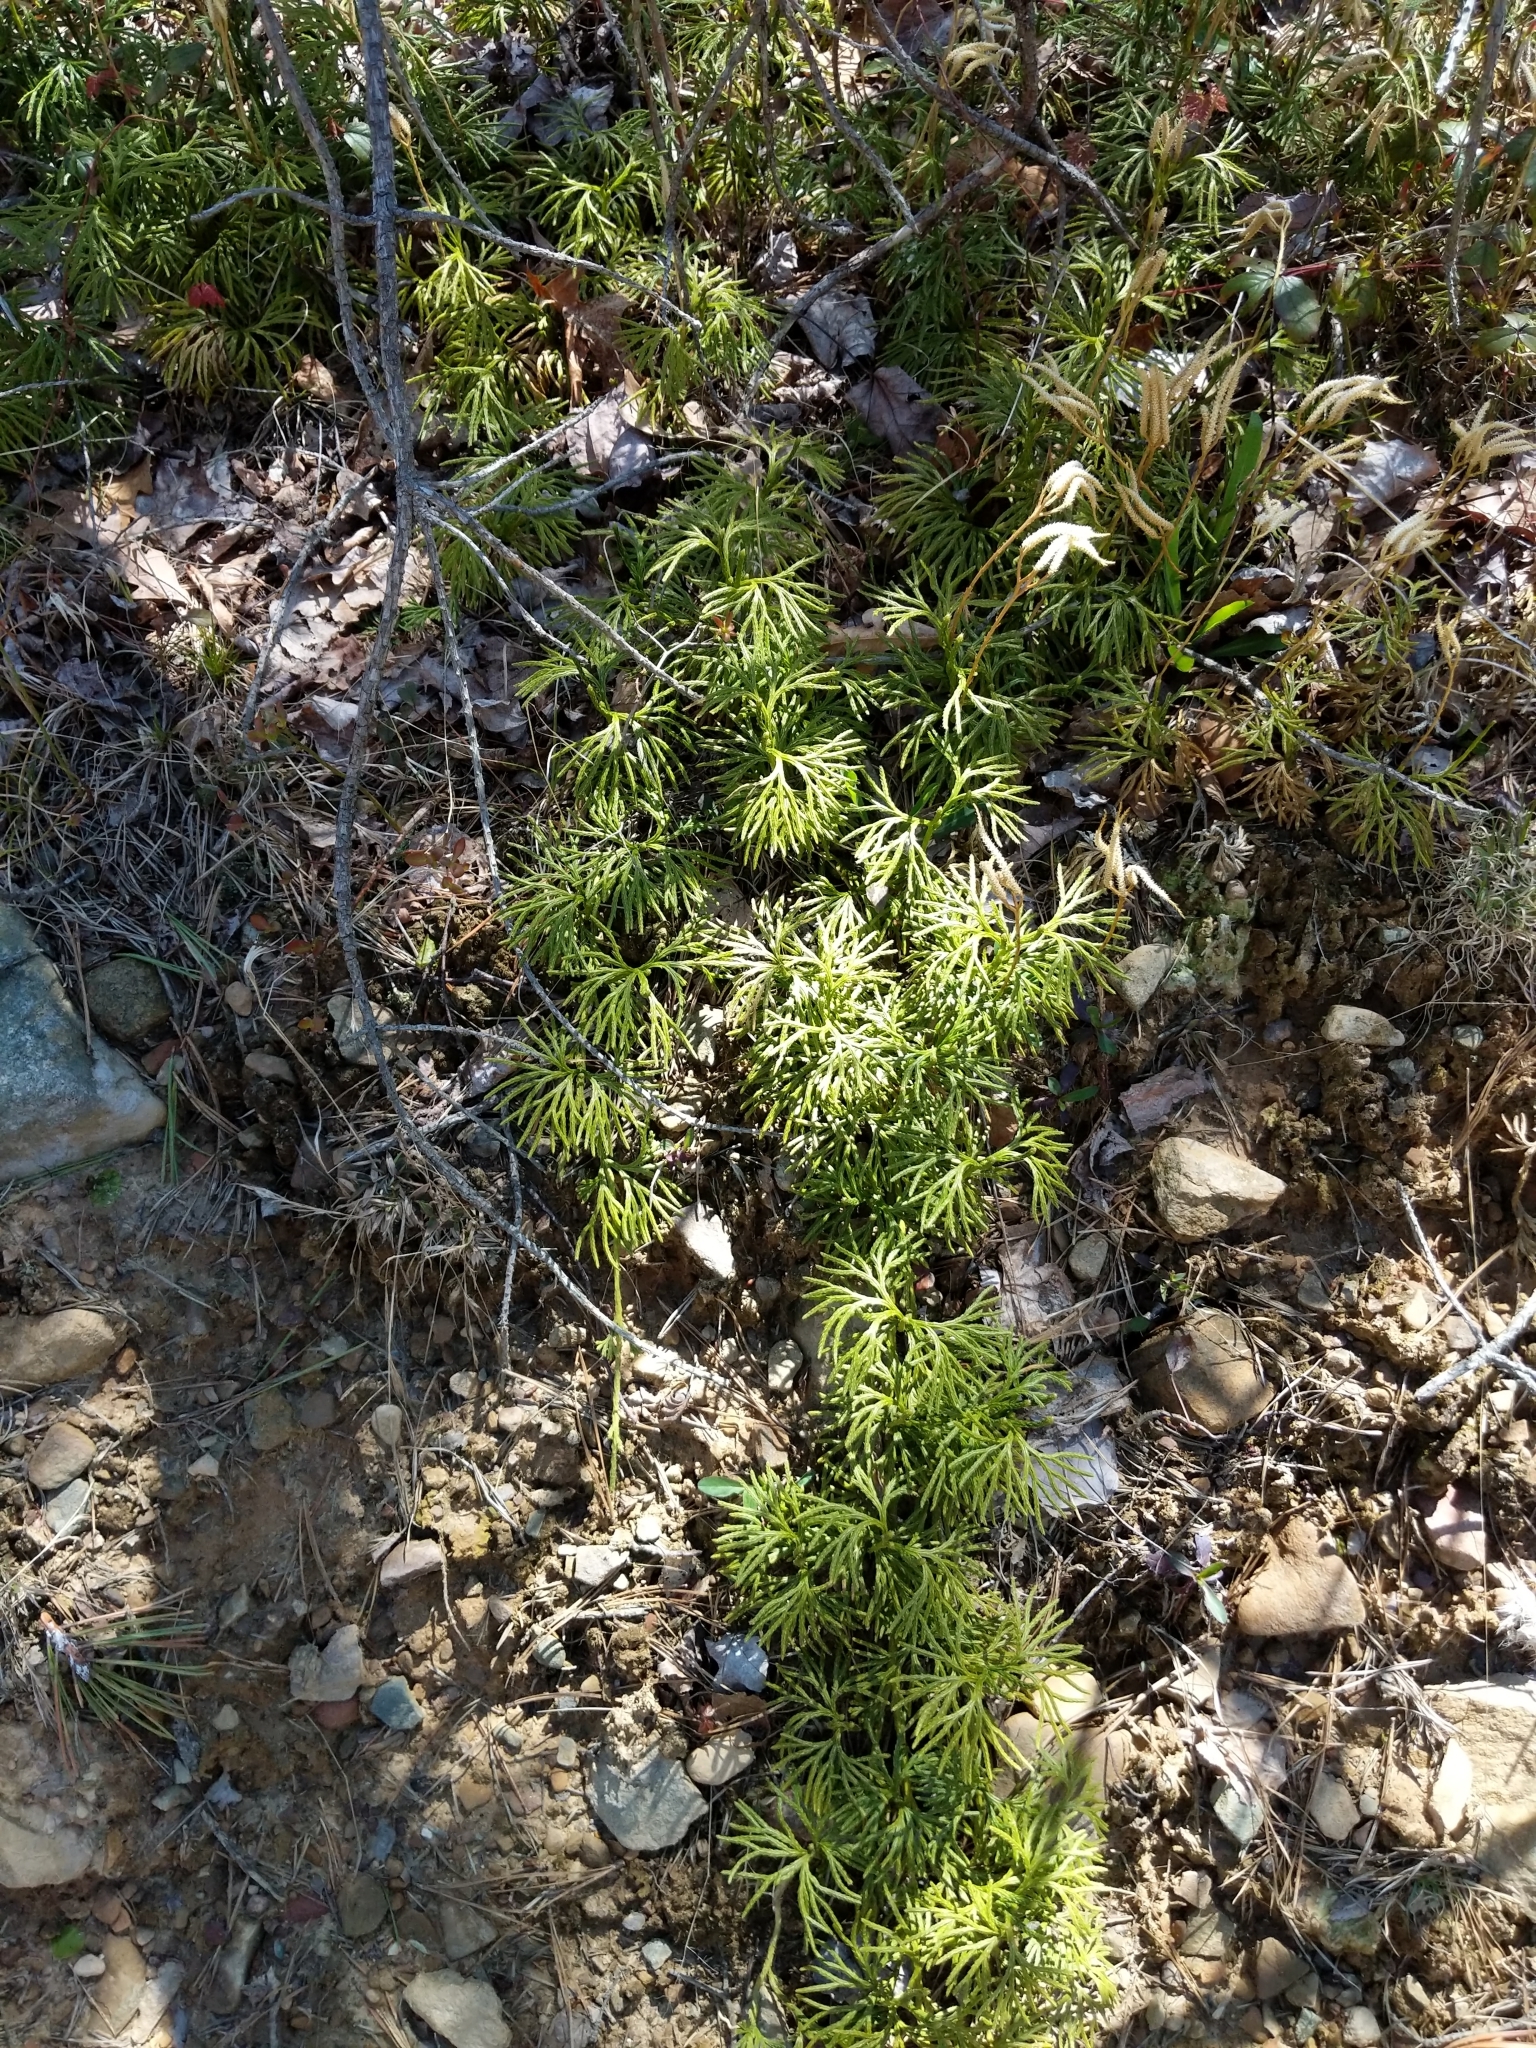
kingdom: Plantae
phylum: Tracheophyta
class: Lycopodiopsida
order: Lycopodiales
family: Lycopodiaceae
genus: Diphasiastrum
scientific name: Diphasiastrum digitatum
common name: Southern running-pine
